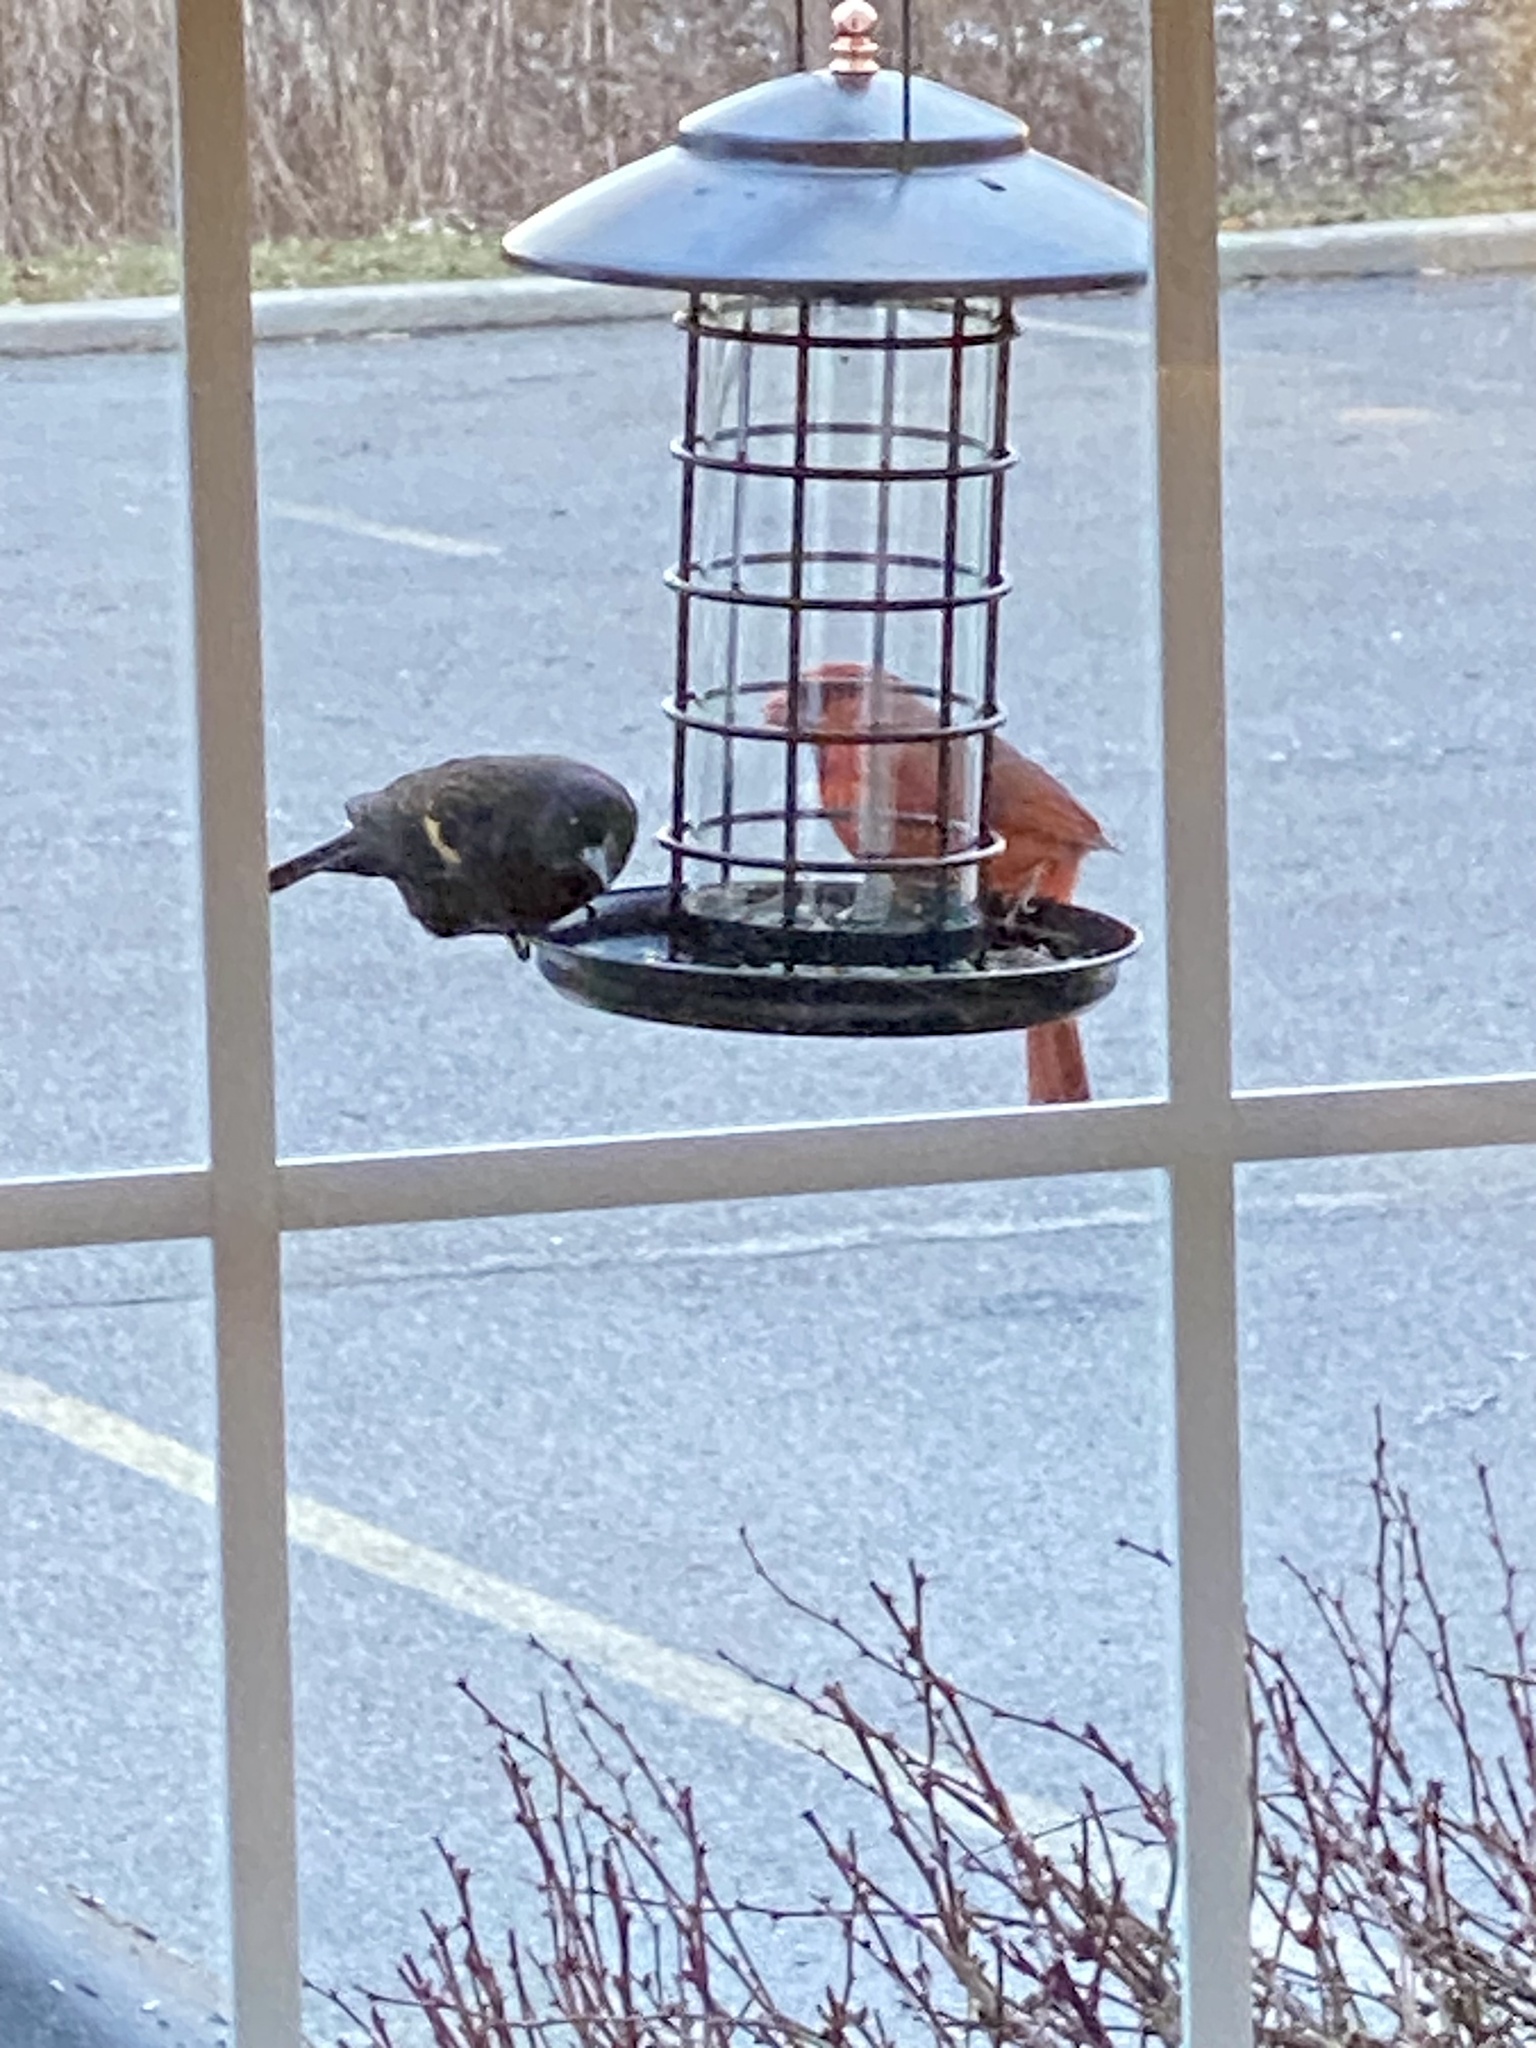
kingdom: Animalia
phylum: Chordata
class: Aves
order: Passeriformes
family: Icteridae
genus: Agelaius
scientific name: Agelaius phoeniceus
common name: Red-winged blackbird
